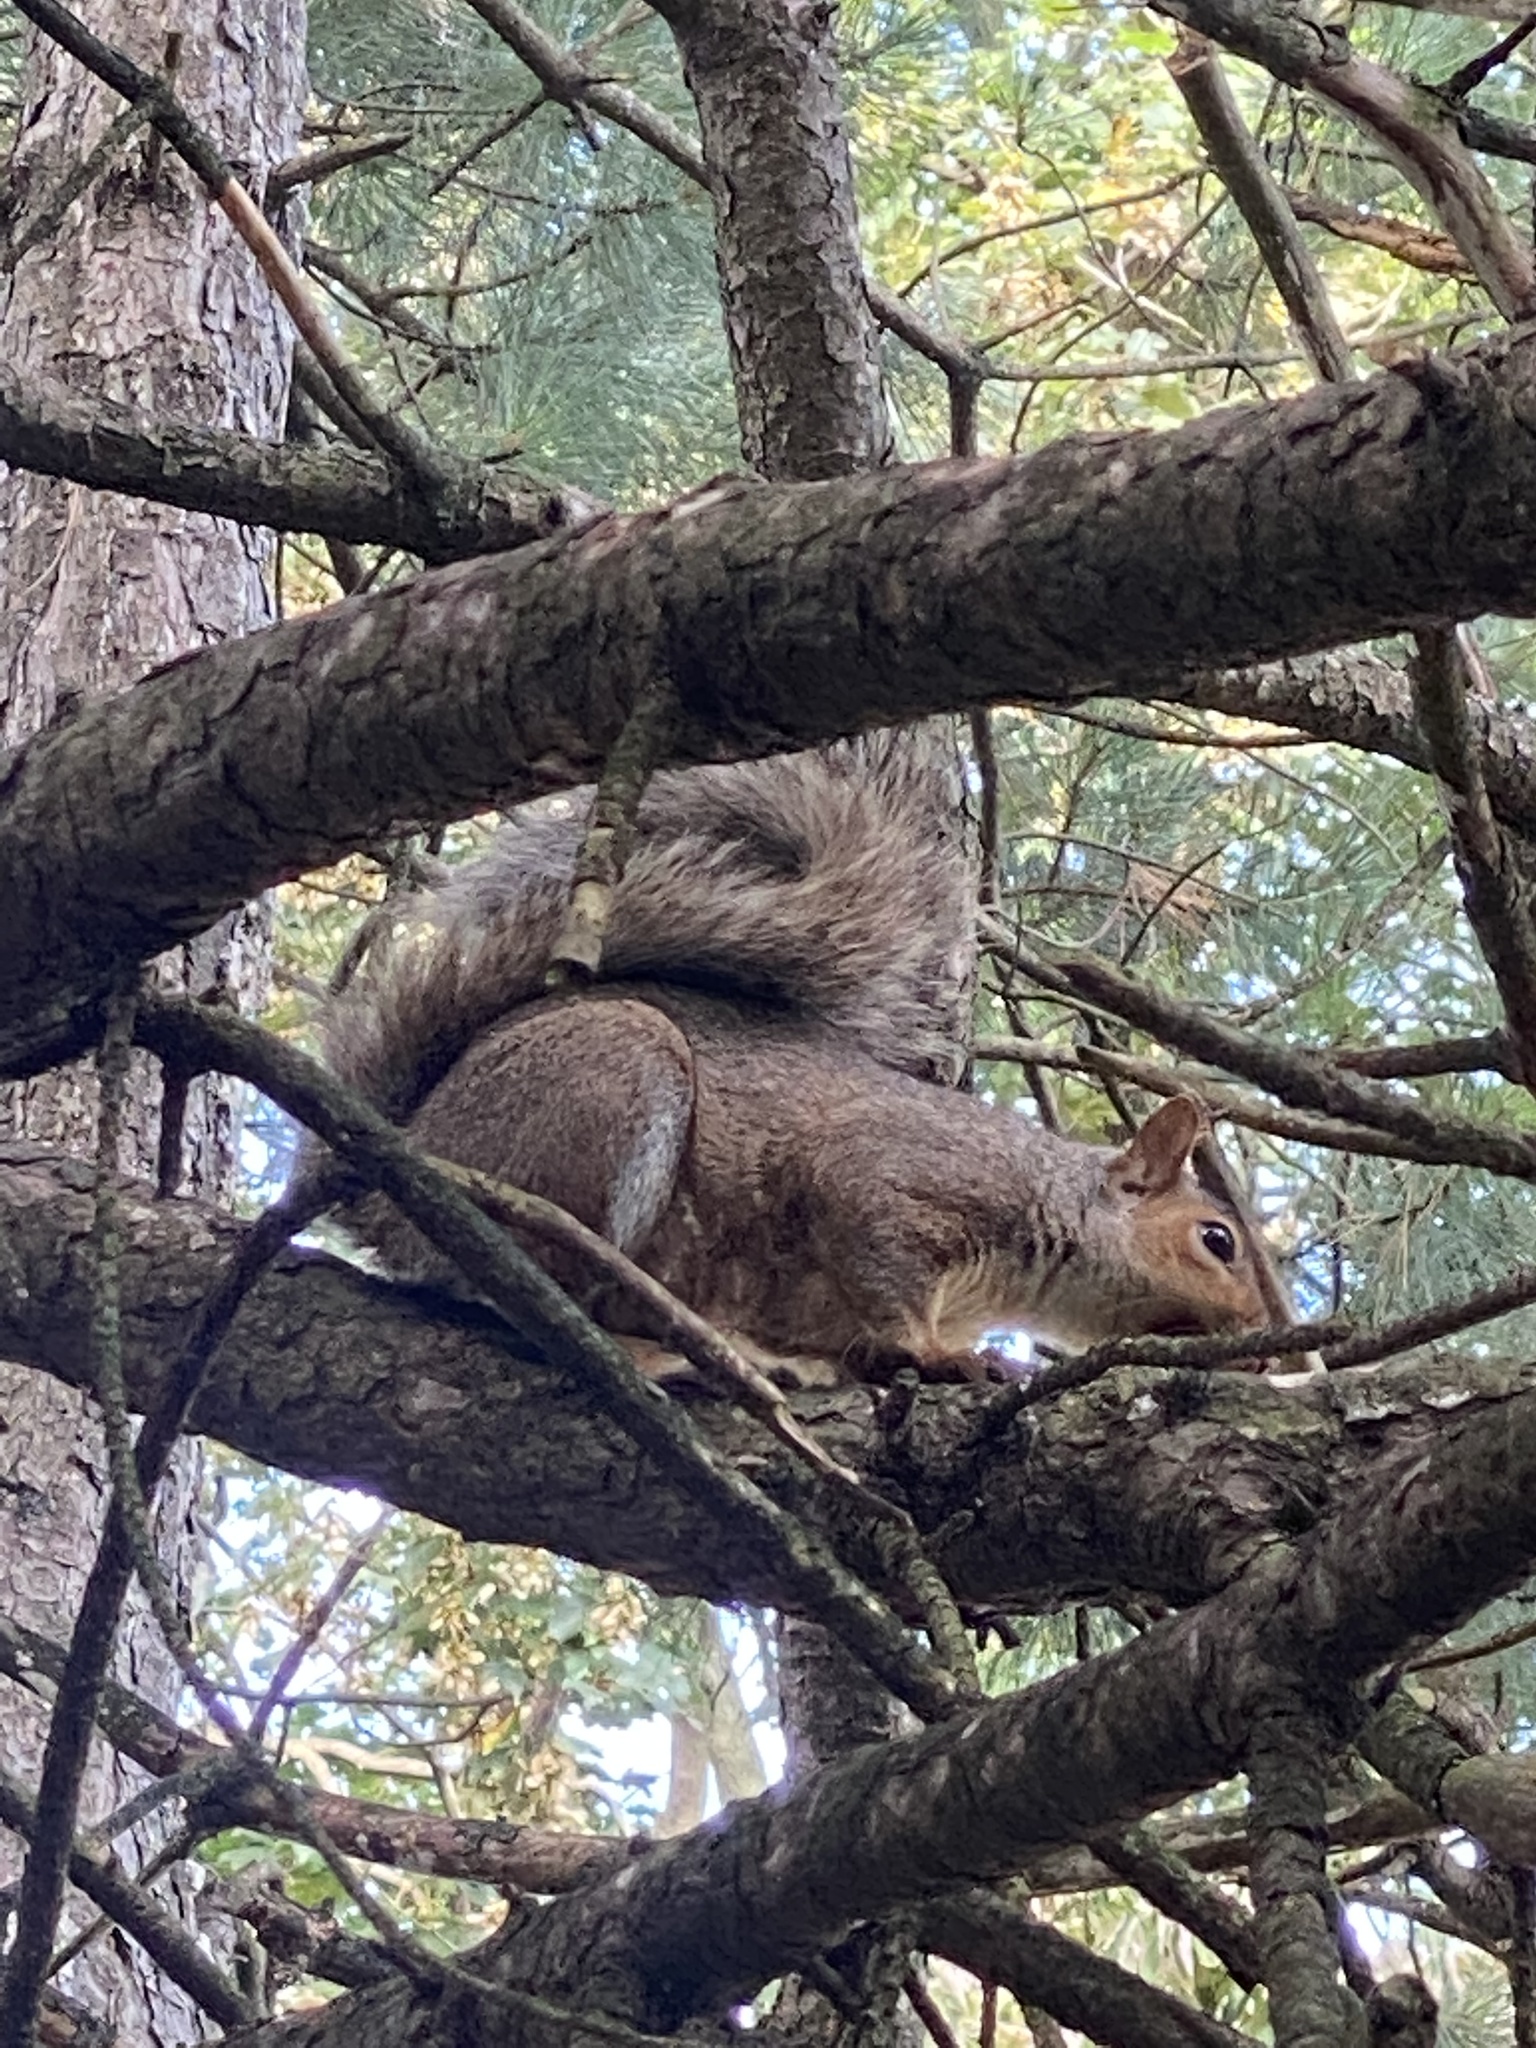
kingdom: Animalia
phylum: Chordata
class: Mammalia
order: Rodentia
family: Sciuridae
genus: Sciurus
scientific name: Sciurus carolinensis
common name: Eastern gray squirrel
